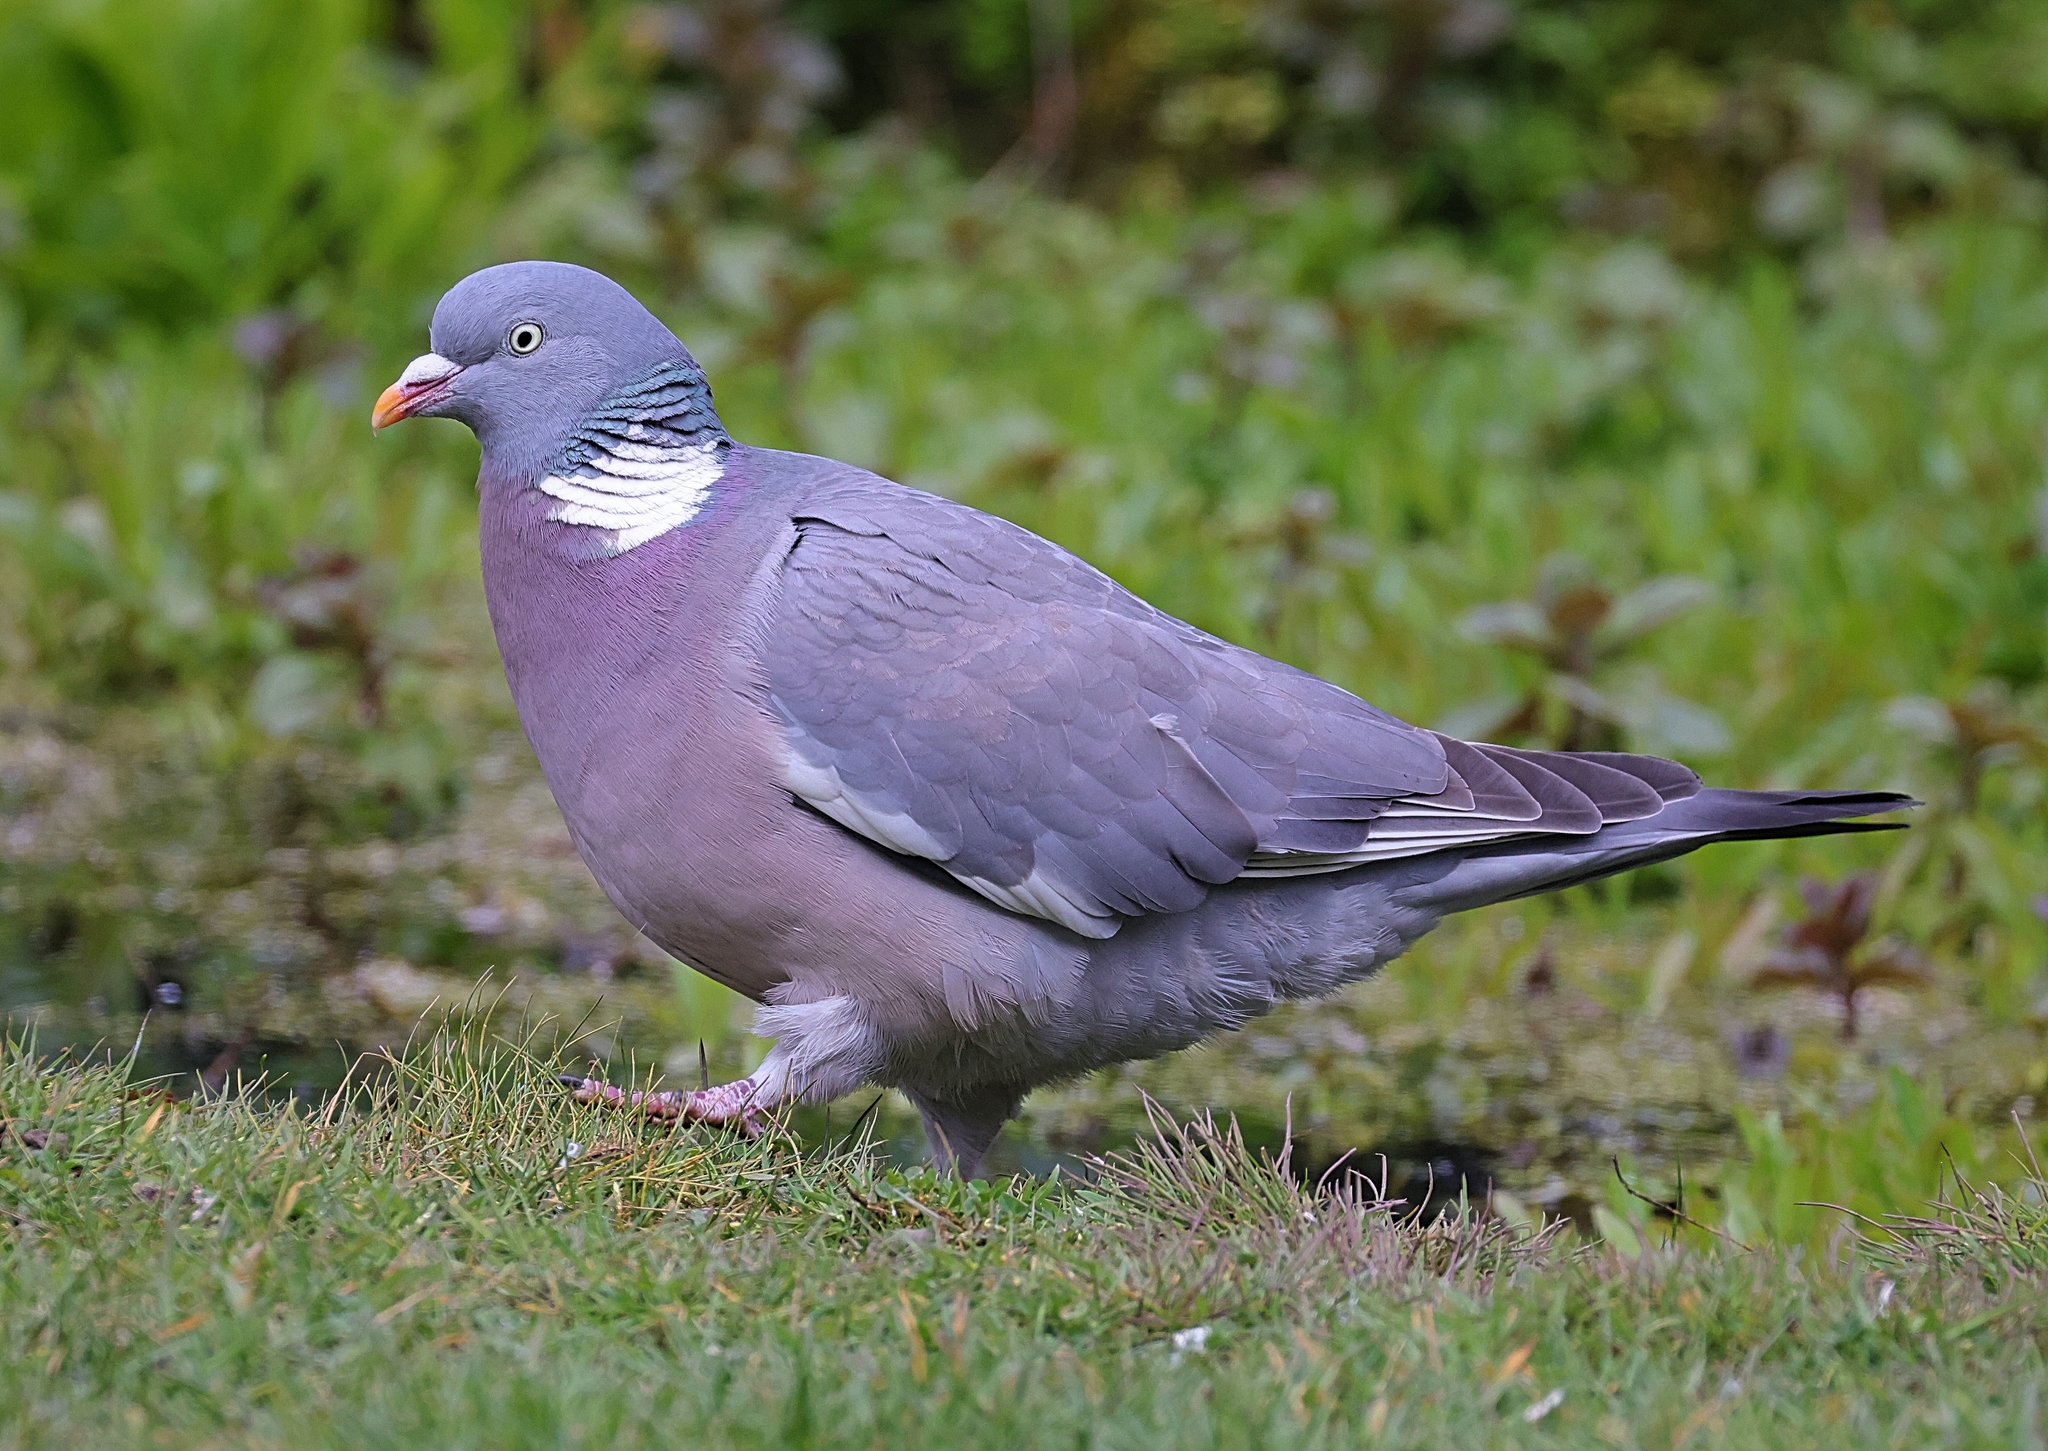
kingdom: Animalia
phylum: Chordata
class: Aves
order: Columbiformes
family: Columbidae
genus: Columba
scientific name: Columba palumbus
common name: Common wood pigeon
